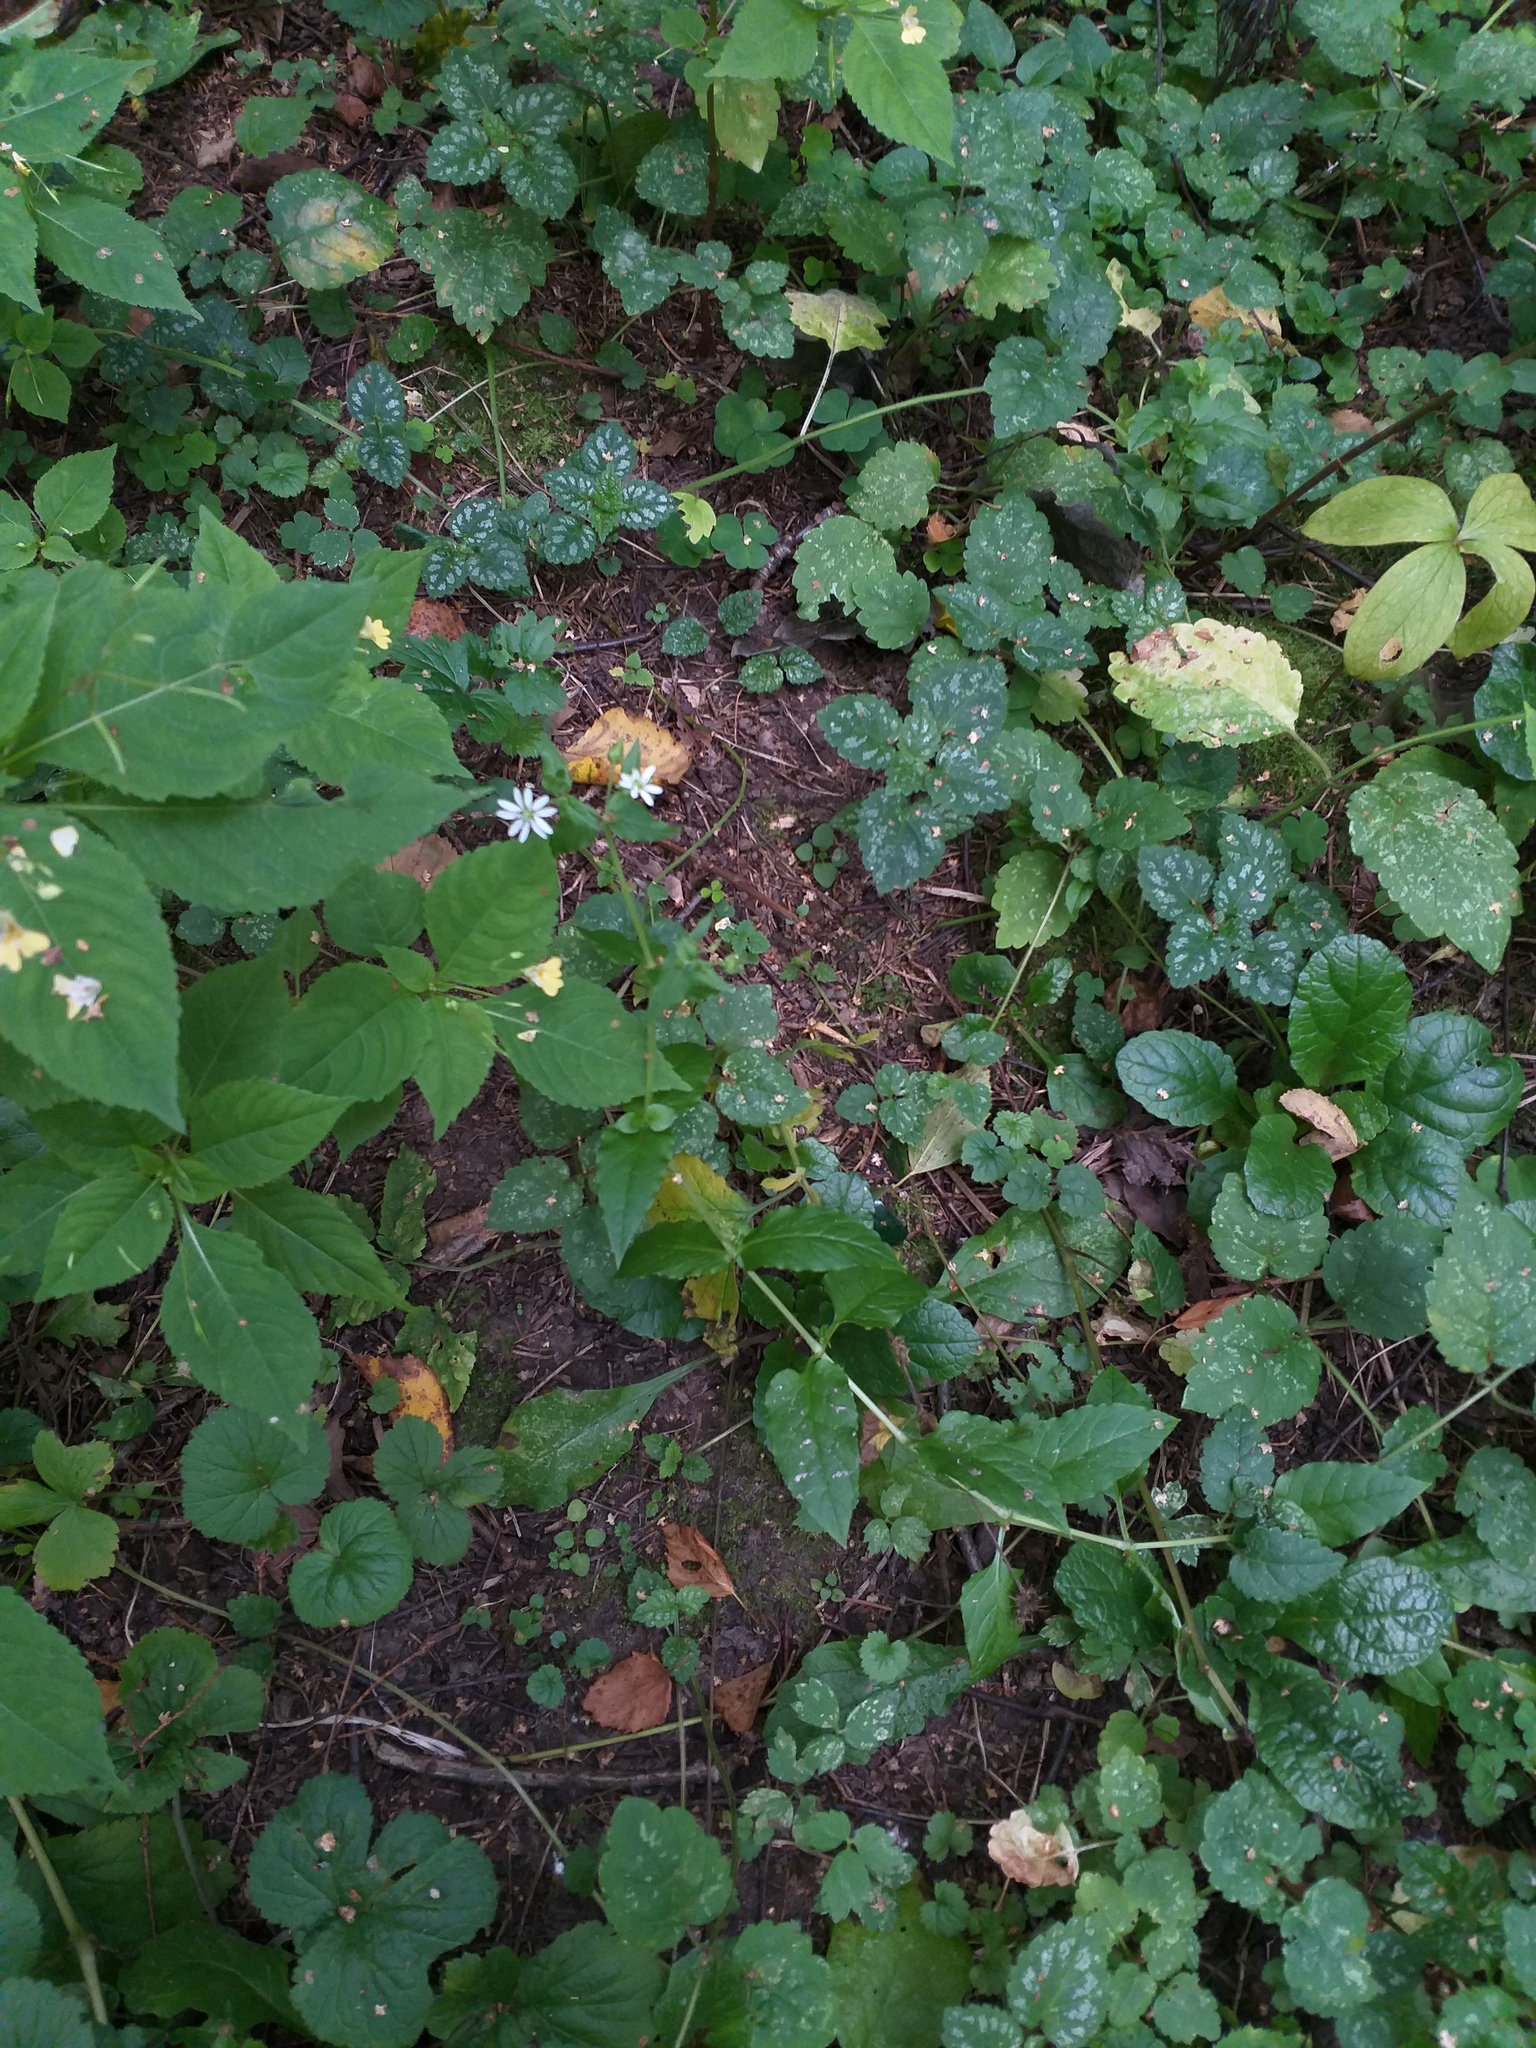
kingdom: Plantae
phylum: Tracheophyta
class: Magnoliopsida
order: Caryophyllales
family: Caryophyllaceae
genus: Stellaria
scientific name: Stellaria aquatica
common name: Water chickweed
